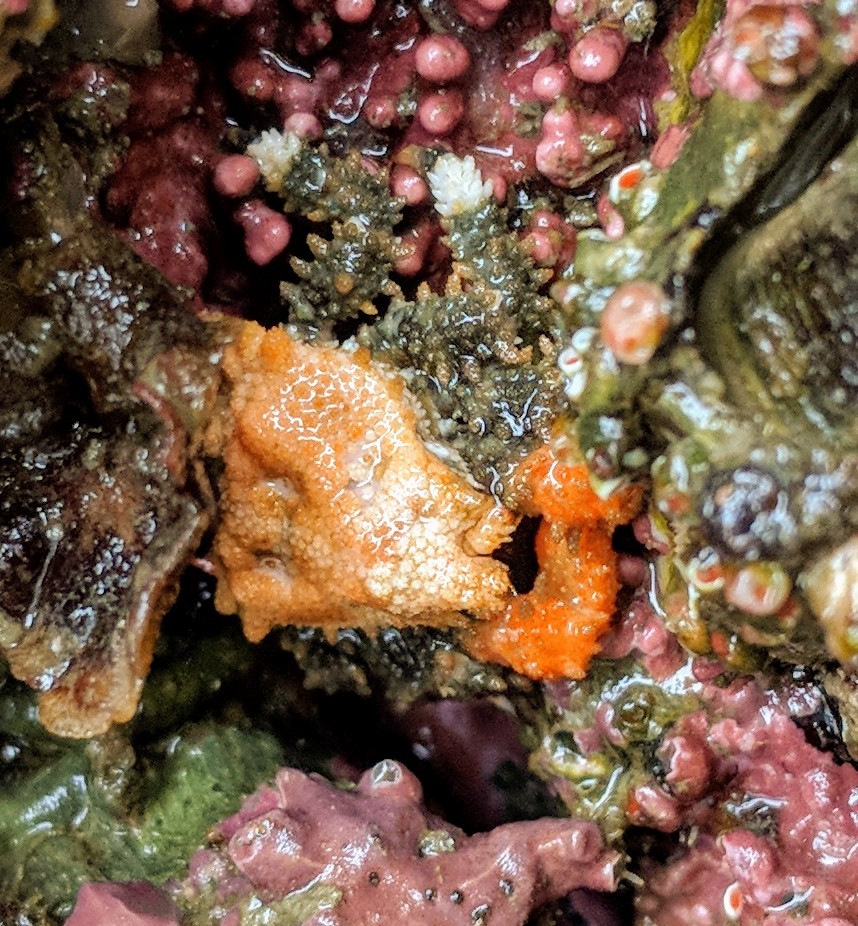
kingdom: Animalia
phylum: Arthropoda
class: Malacostraca
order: Decapoda
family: Lithodidae
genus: Phyllolithodes
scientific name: Phyllolithodes papillosus
